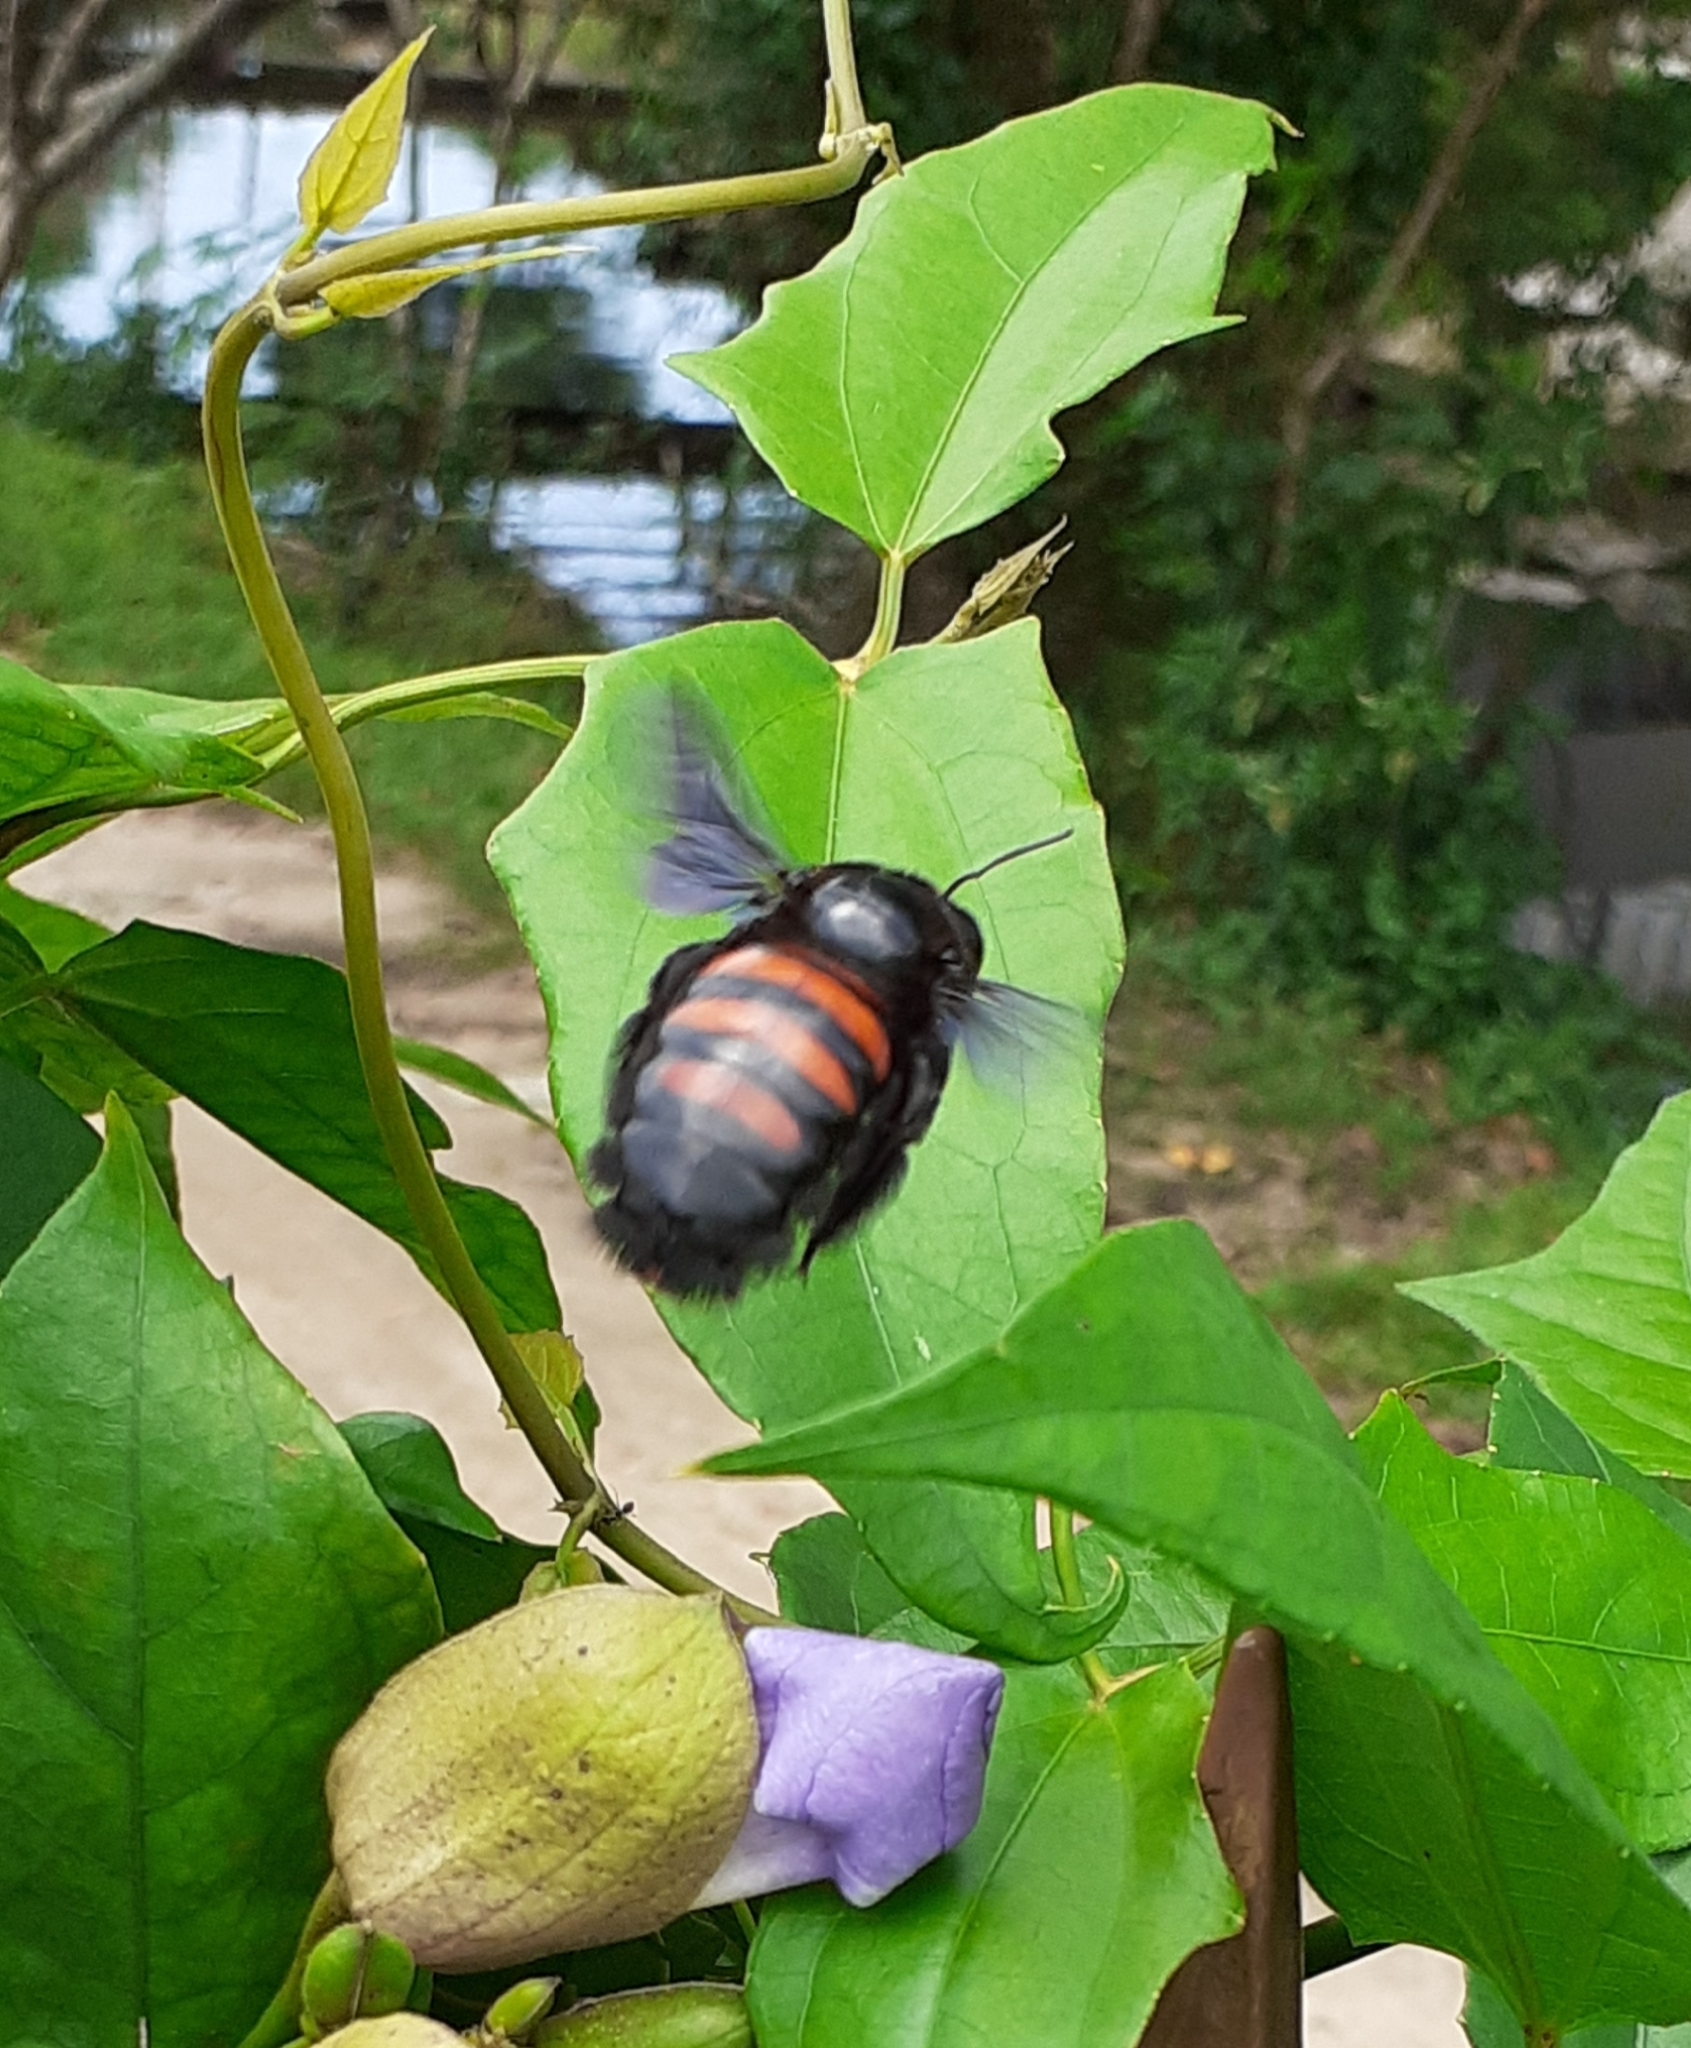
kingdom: Animalia
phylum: Arthropoda
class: Insecta
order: Hymenoptera
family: Apidae
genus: Xylocopa
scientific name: Xylocopa frontalis
